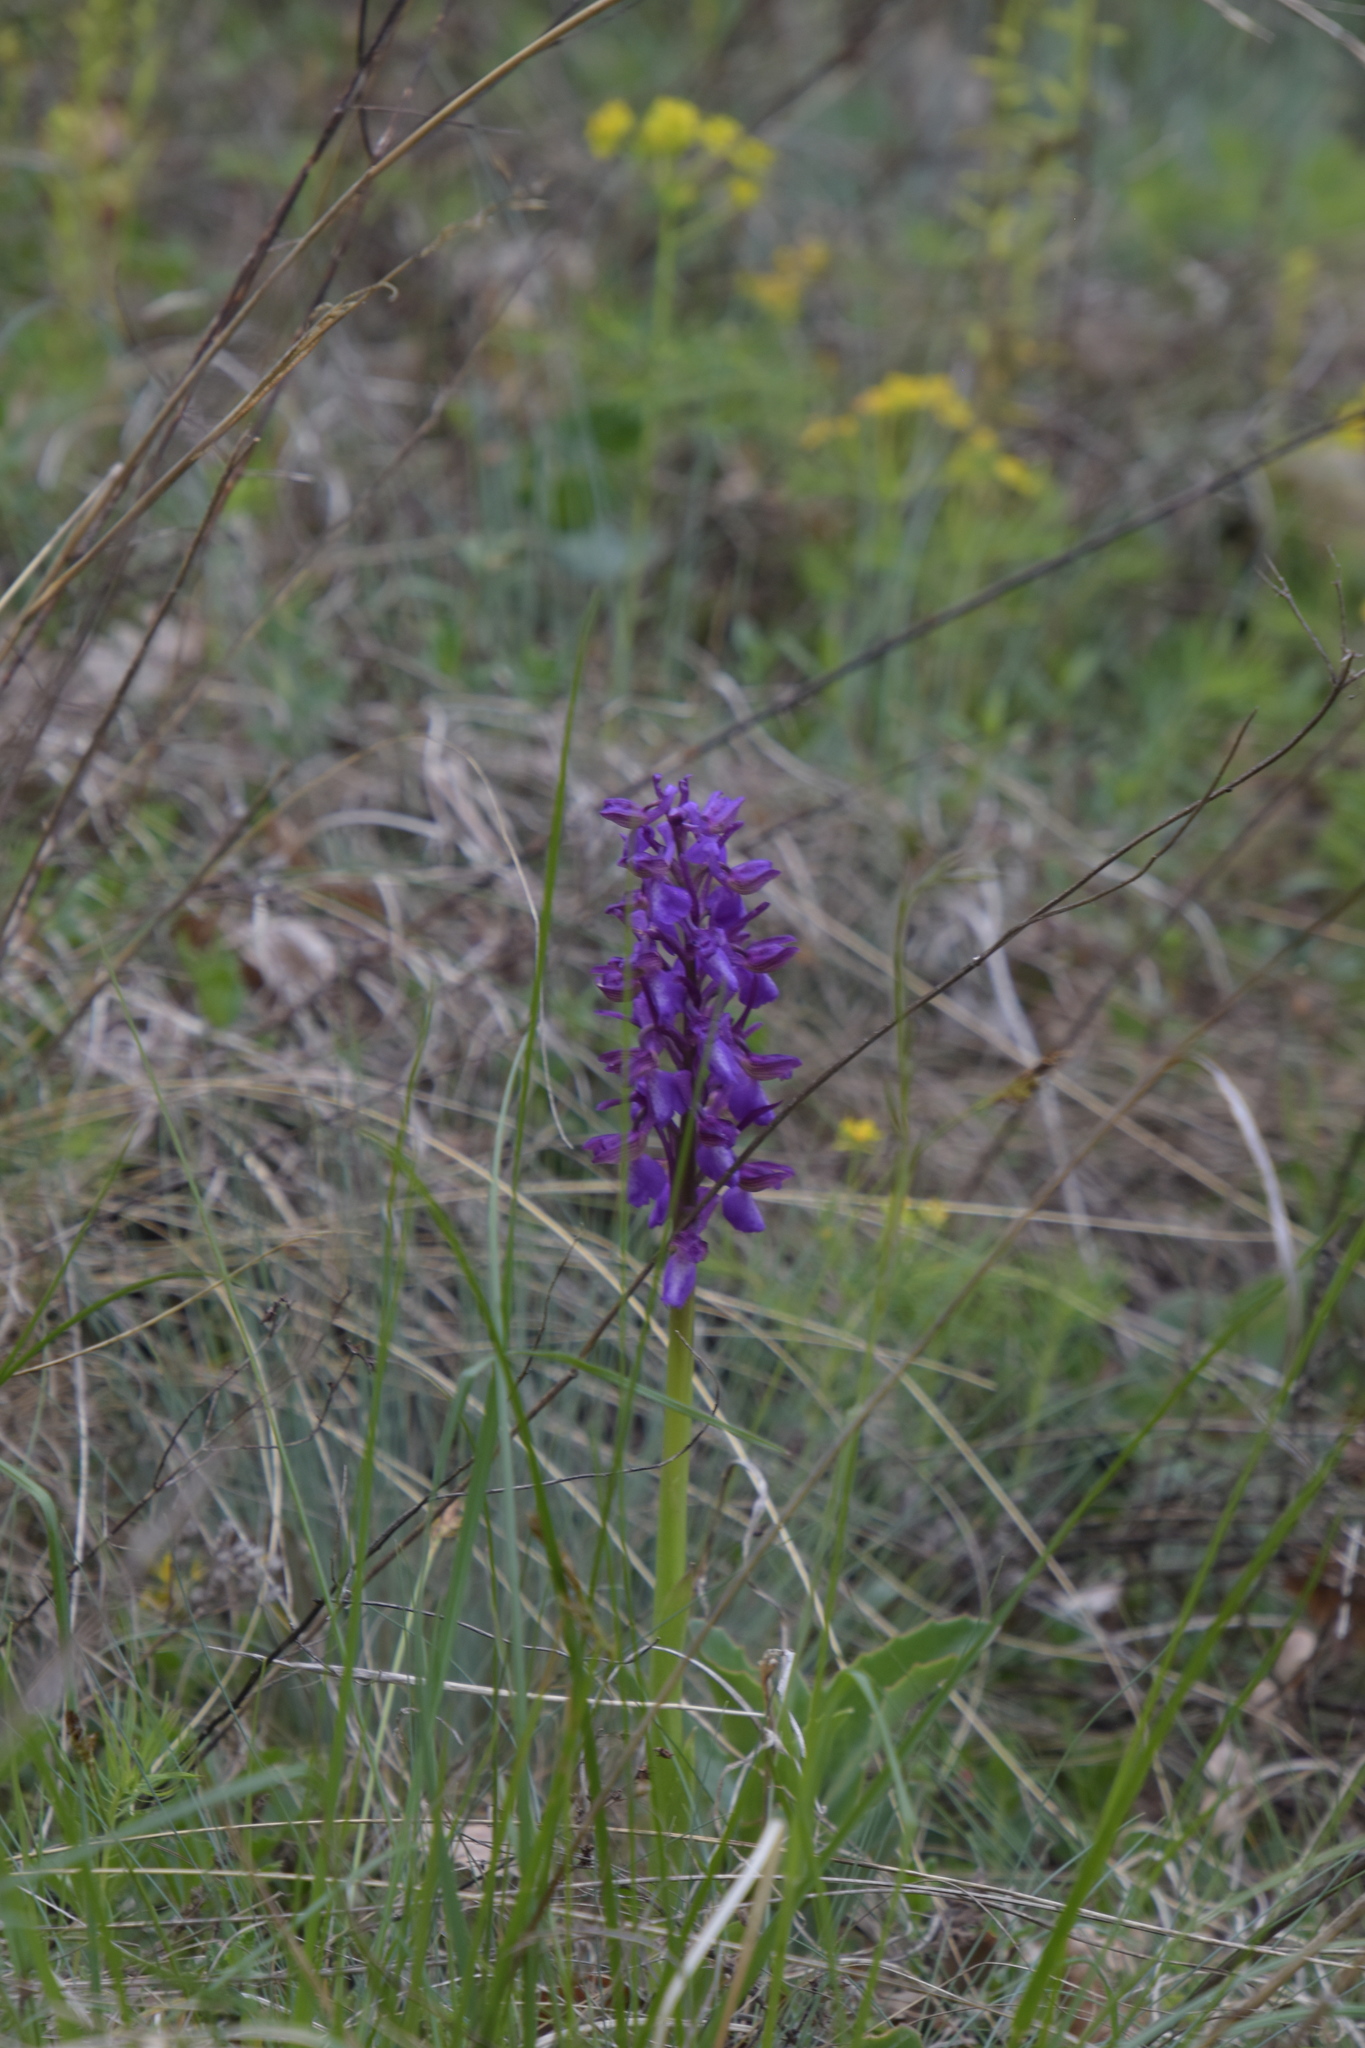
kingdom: Plantae
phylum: Tracheophyta
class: Liliopsida
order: Asparagales
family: Orchidaceae
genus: Anacamptis
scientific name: Anacamptis morio
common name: Green-winged orchid
